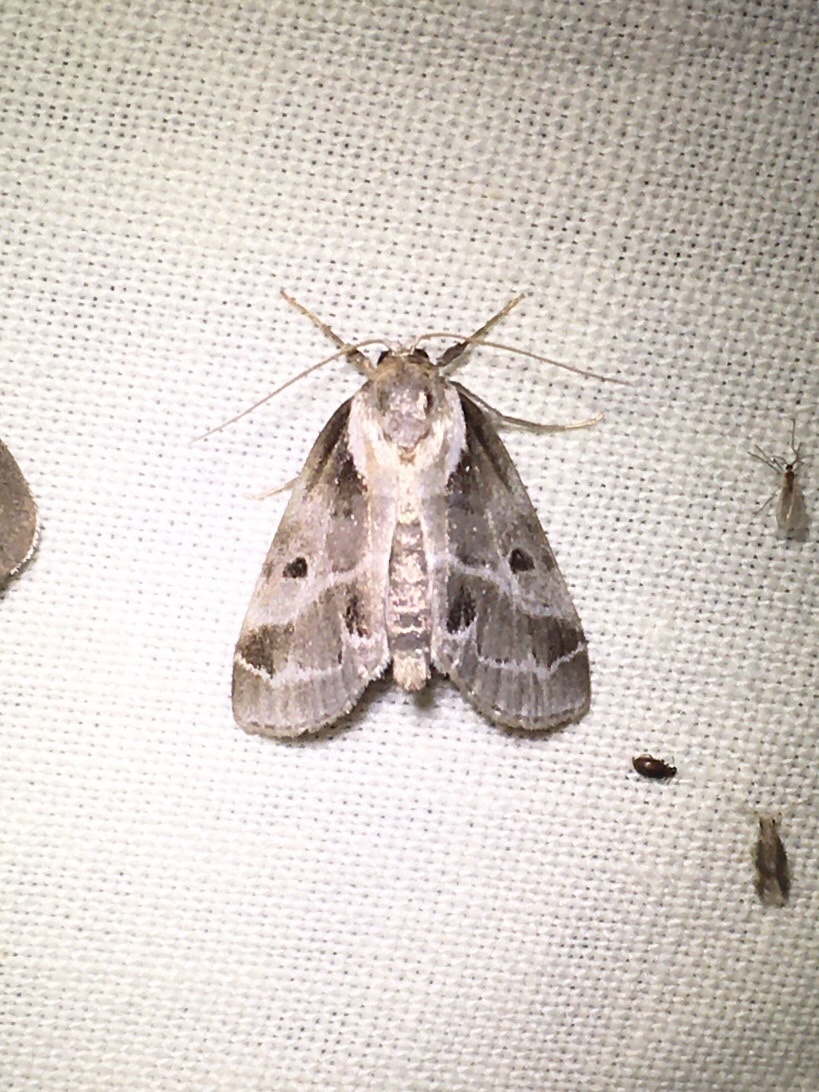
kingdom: Animalia
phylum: Arthropoda
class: Insecta
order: Lepidoptera
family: Nolidae
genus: Baileya
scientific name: Baileya doubledayi
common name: Doubleday's baileya moth
